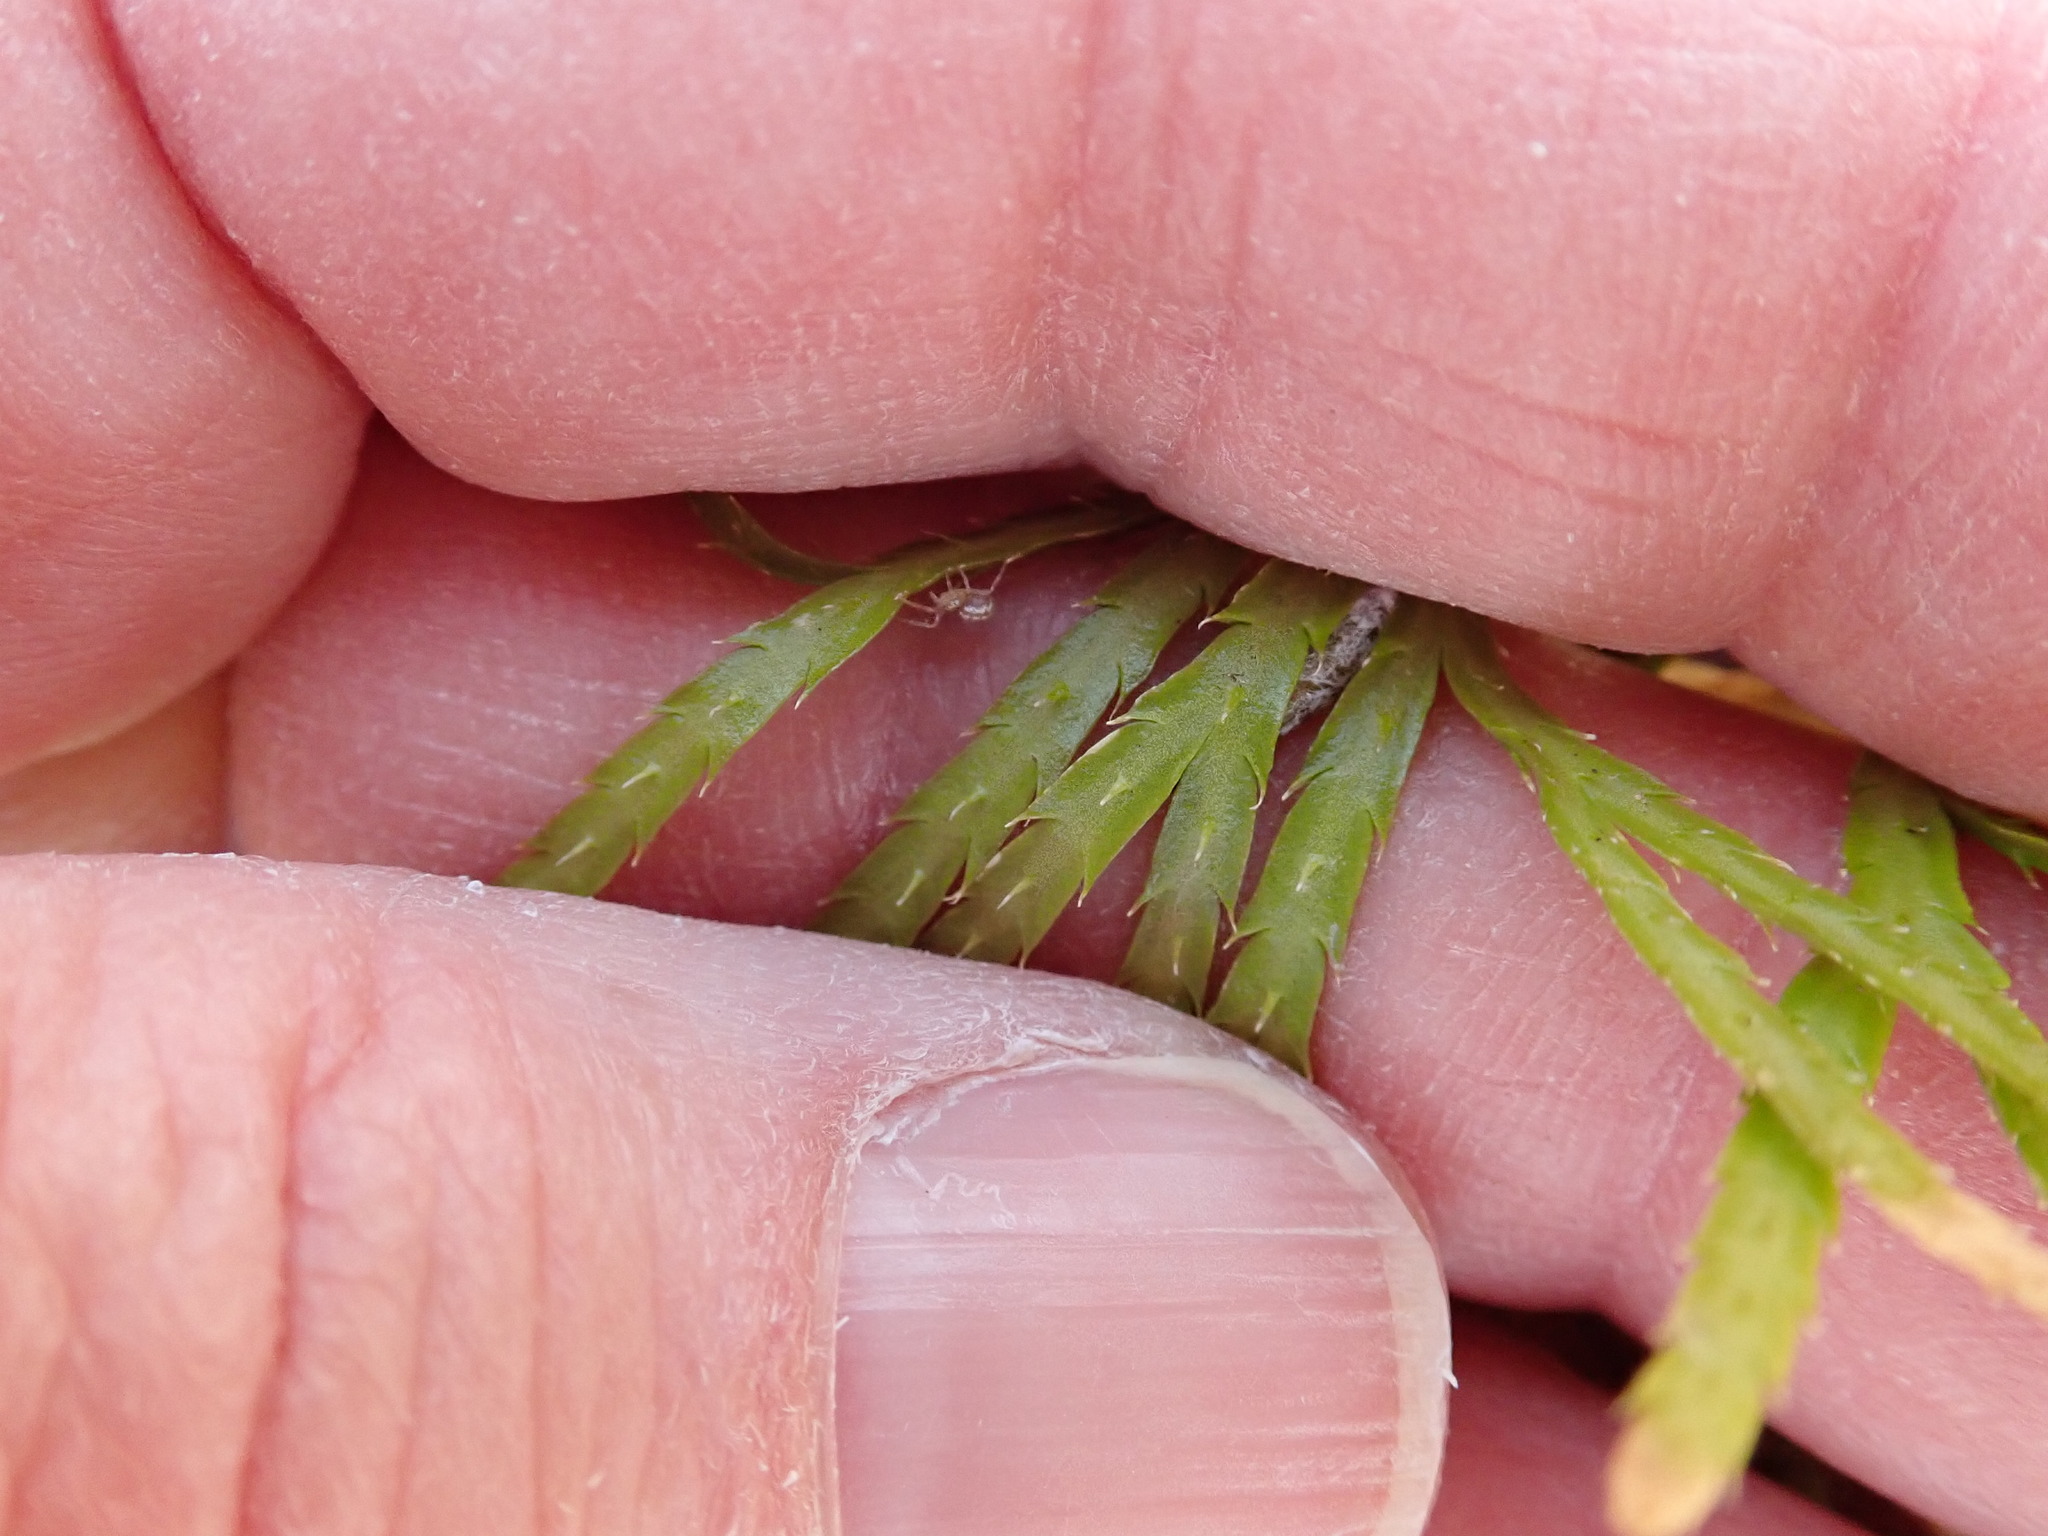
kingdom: Plantae
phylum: Tracheophyta
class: Lycopodiopsida
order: Lycopodiales
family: Lycopodiaceae
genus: Diphasiastrum
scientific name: Diphasiastrum digitatum
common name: Southern running-pine
